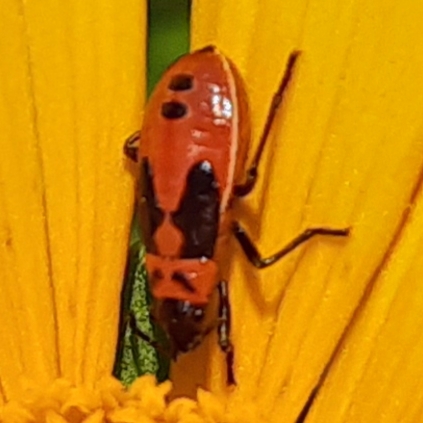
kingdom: Animalia
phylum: Arthropoda
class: Insecta
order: Hemiptera
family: Lygaeidae
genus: Lygaeus
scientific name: Lygaeus turcicus
